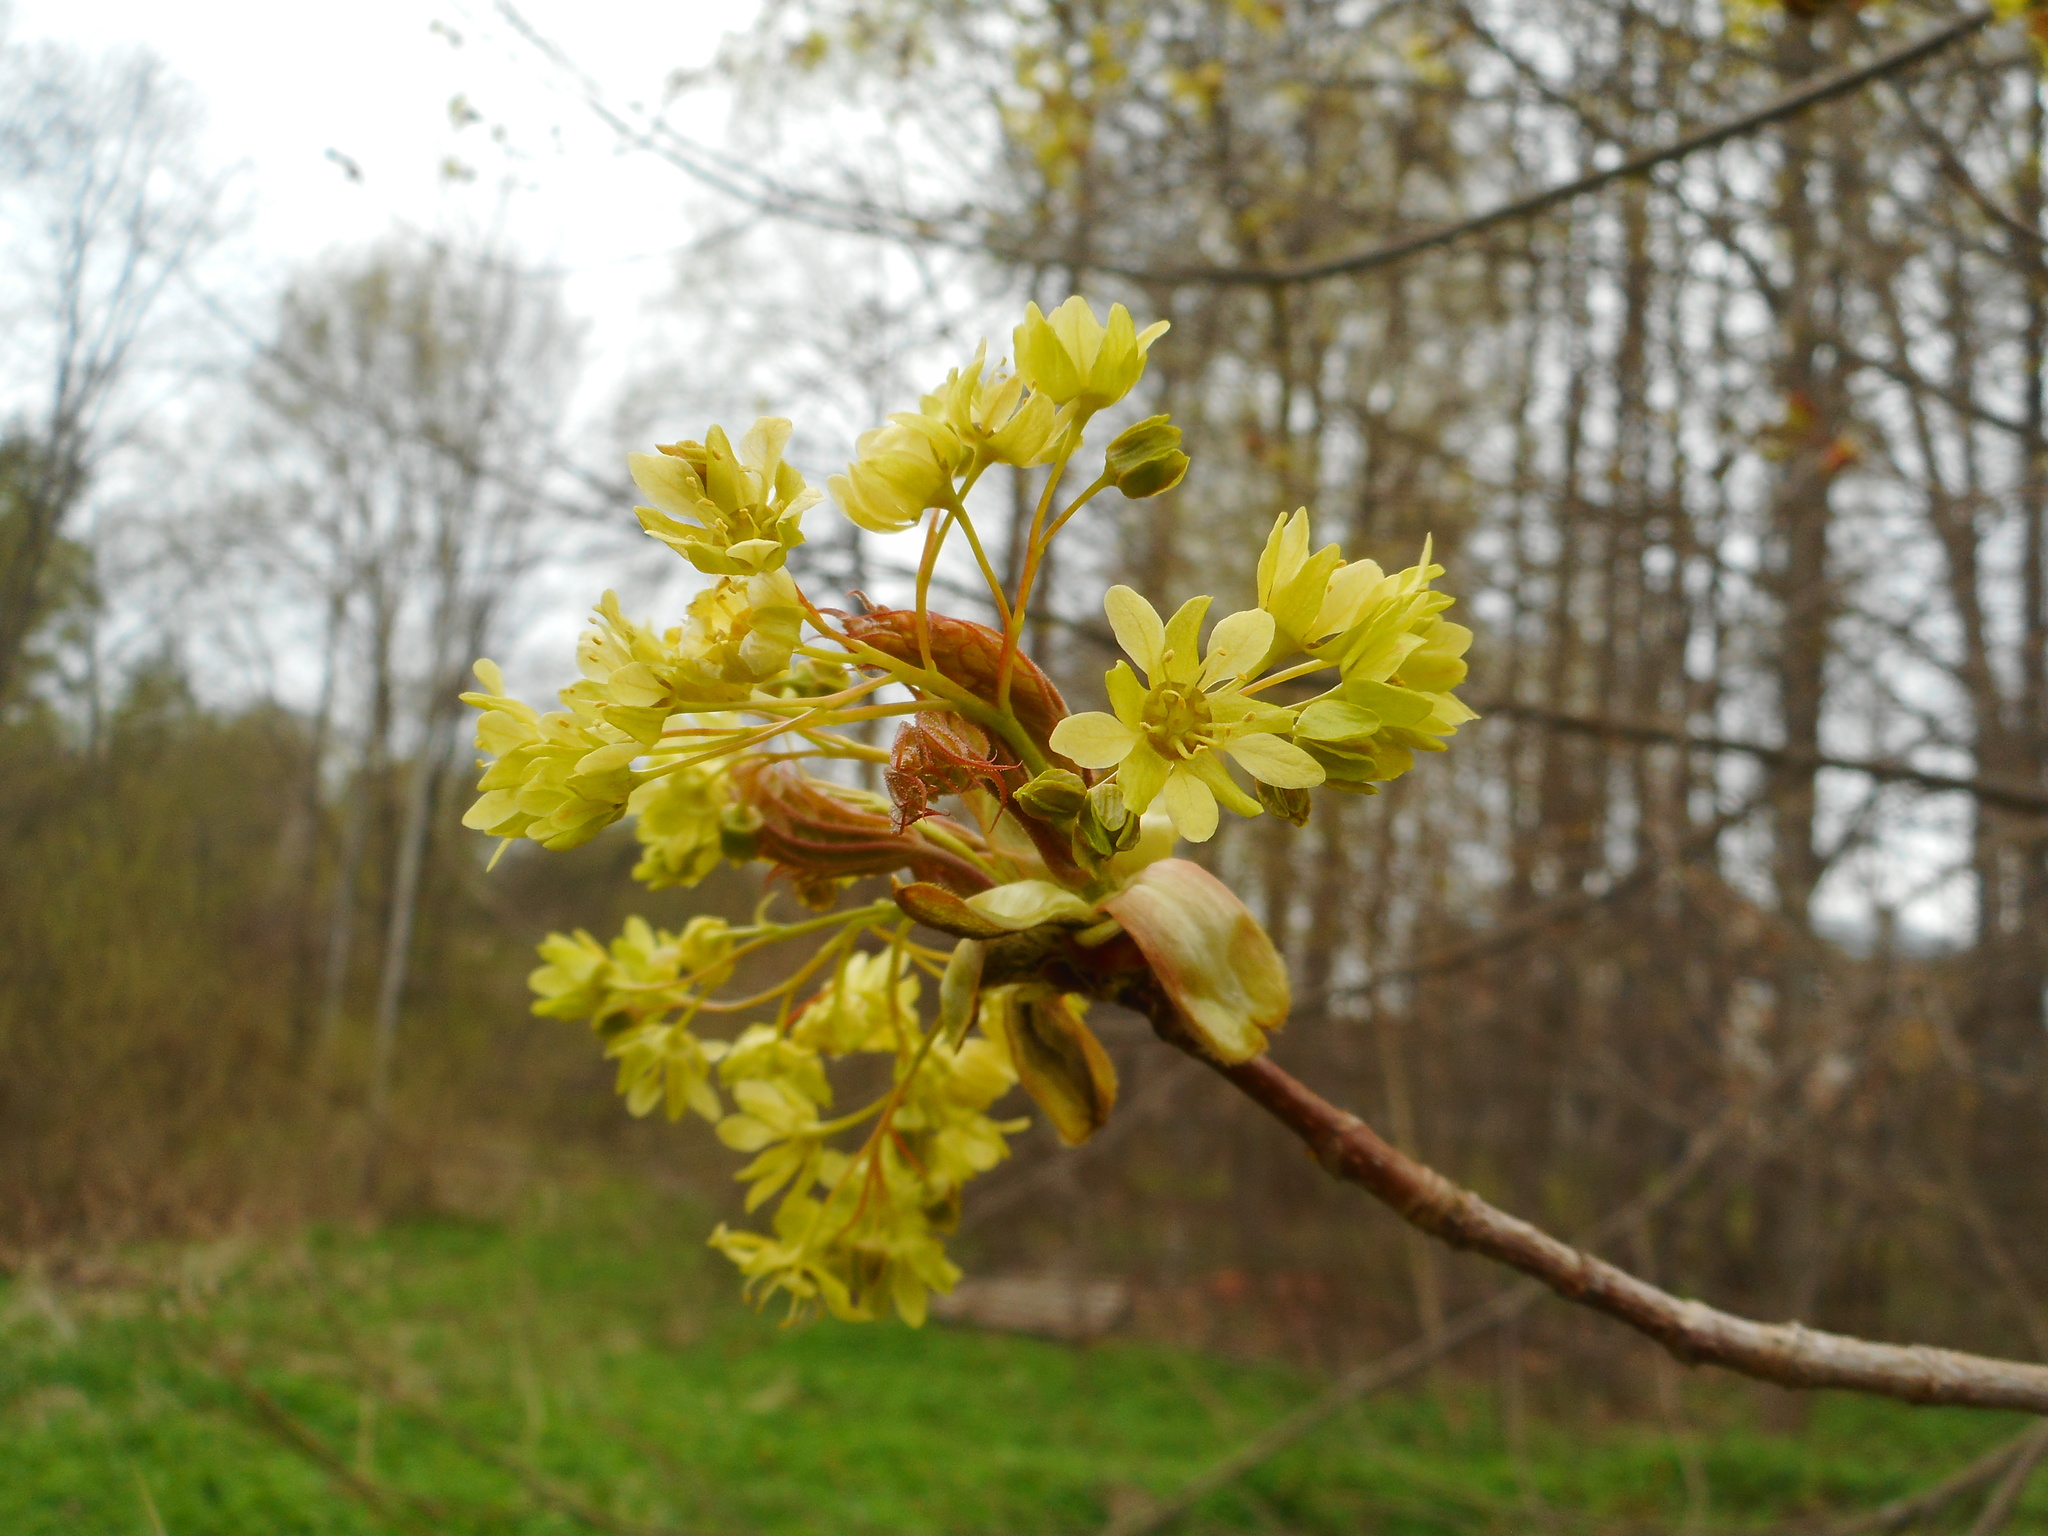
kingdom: Plantae
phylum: Tracheophyta
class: Magnoliopsida
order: Sapindales
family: Sapindaceae
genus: Acer
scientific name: Acer platanoides
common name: Norway maple
